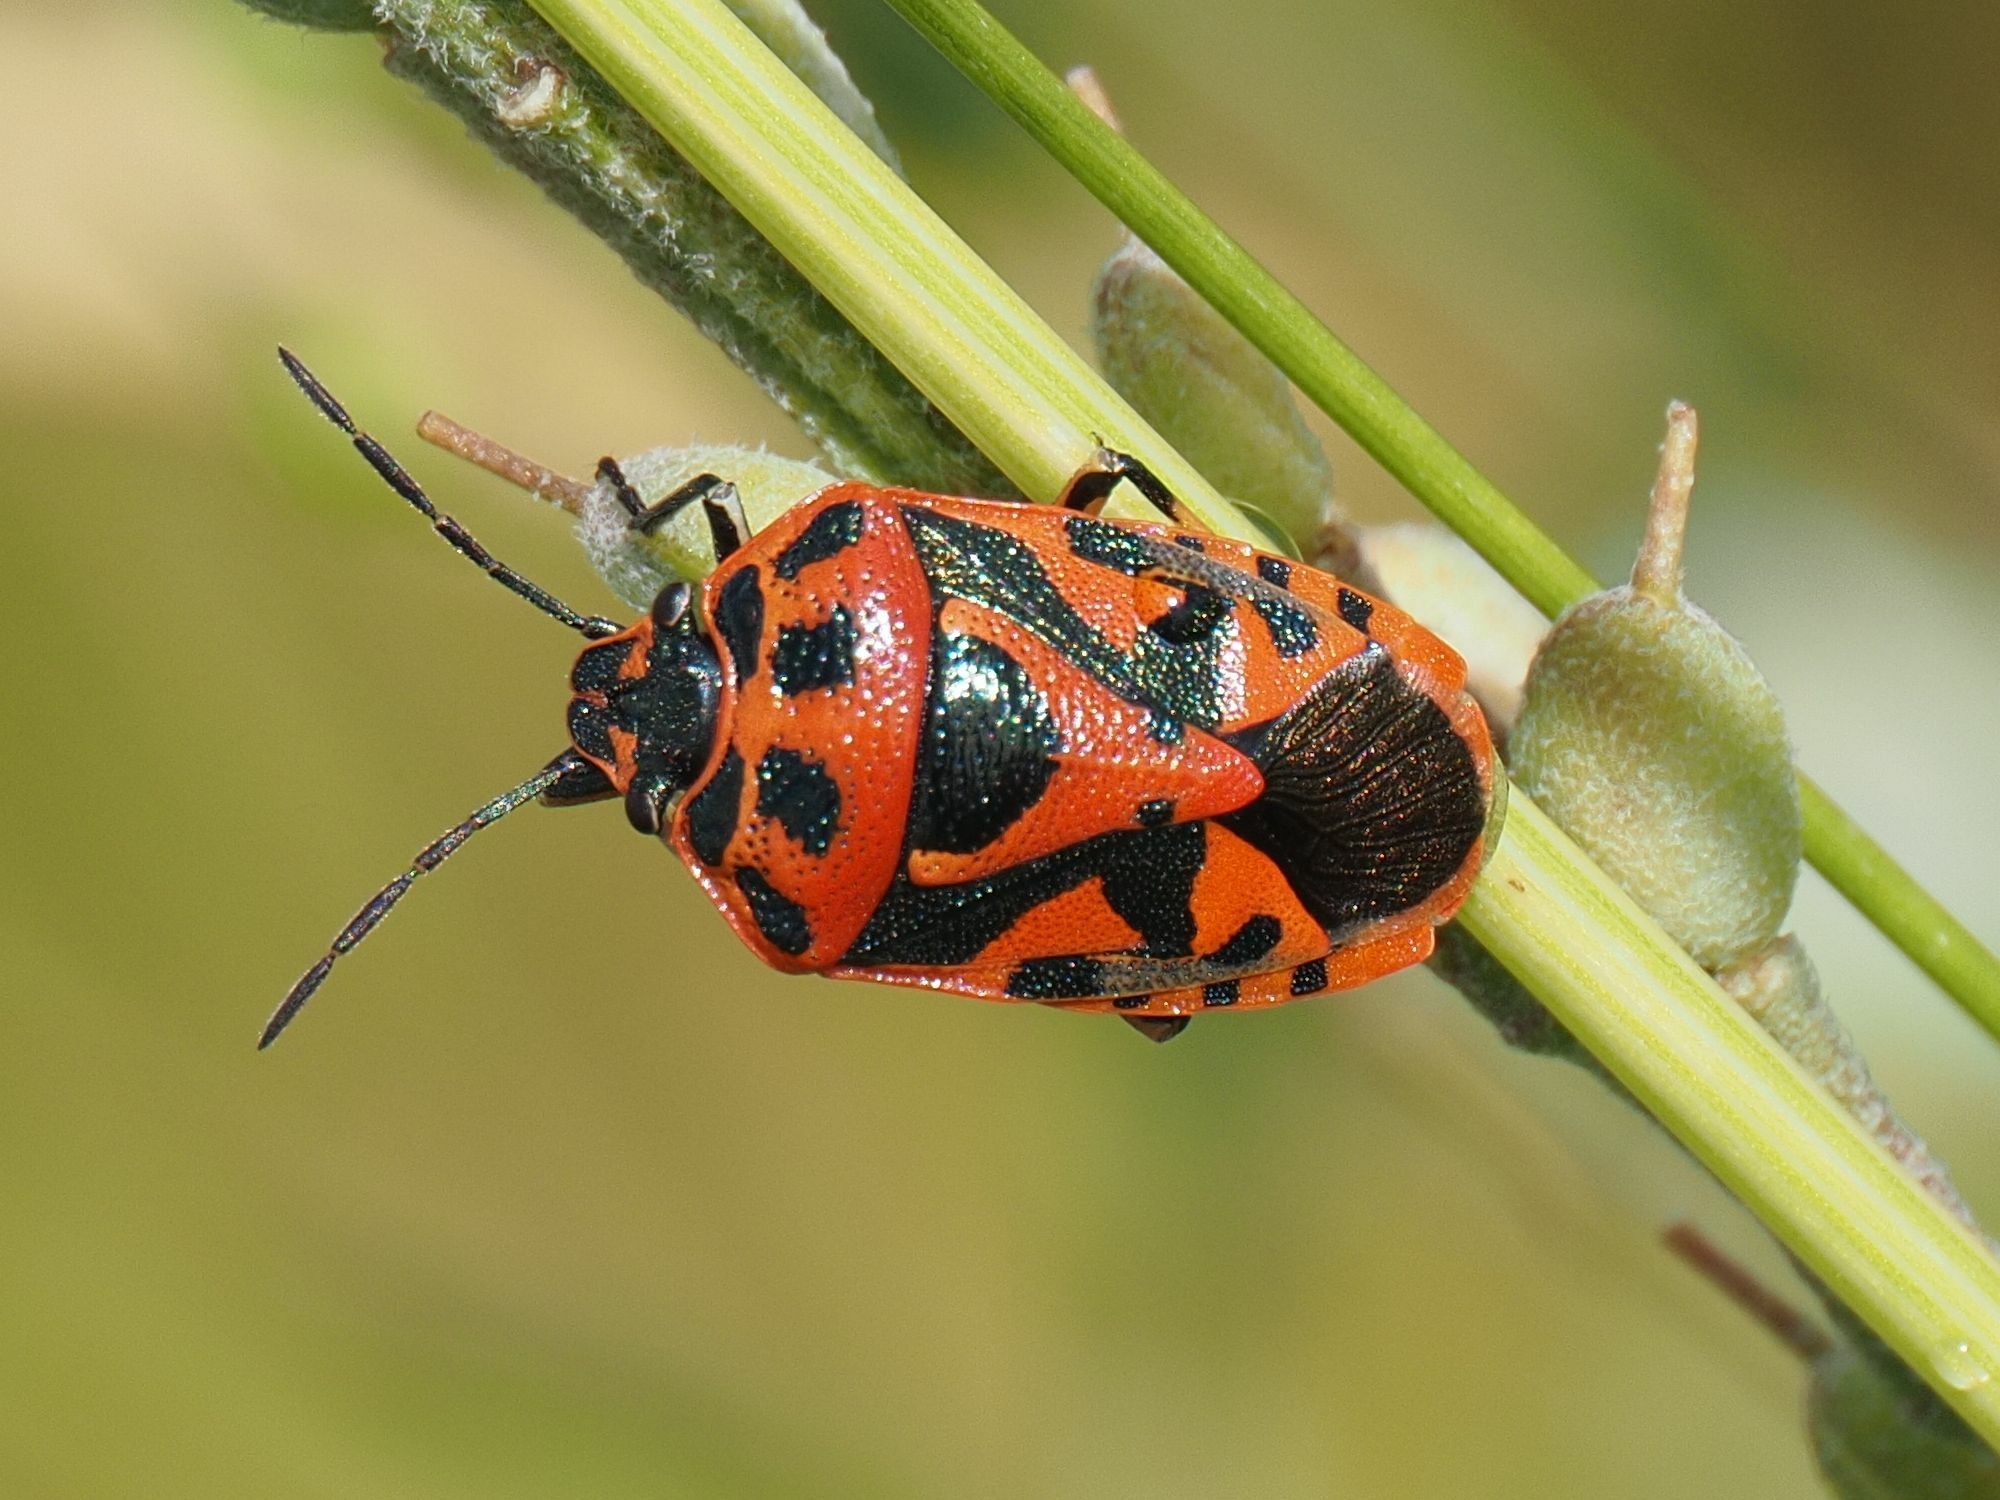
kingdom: Animalia
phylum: Arthropoda
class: Insecta
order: Hemiptera
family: Pentatomidae
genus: Eurydema
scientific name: Eurydema ornata
